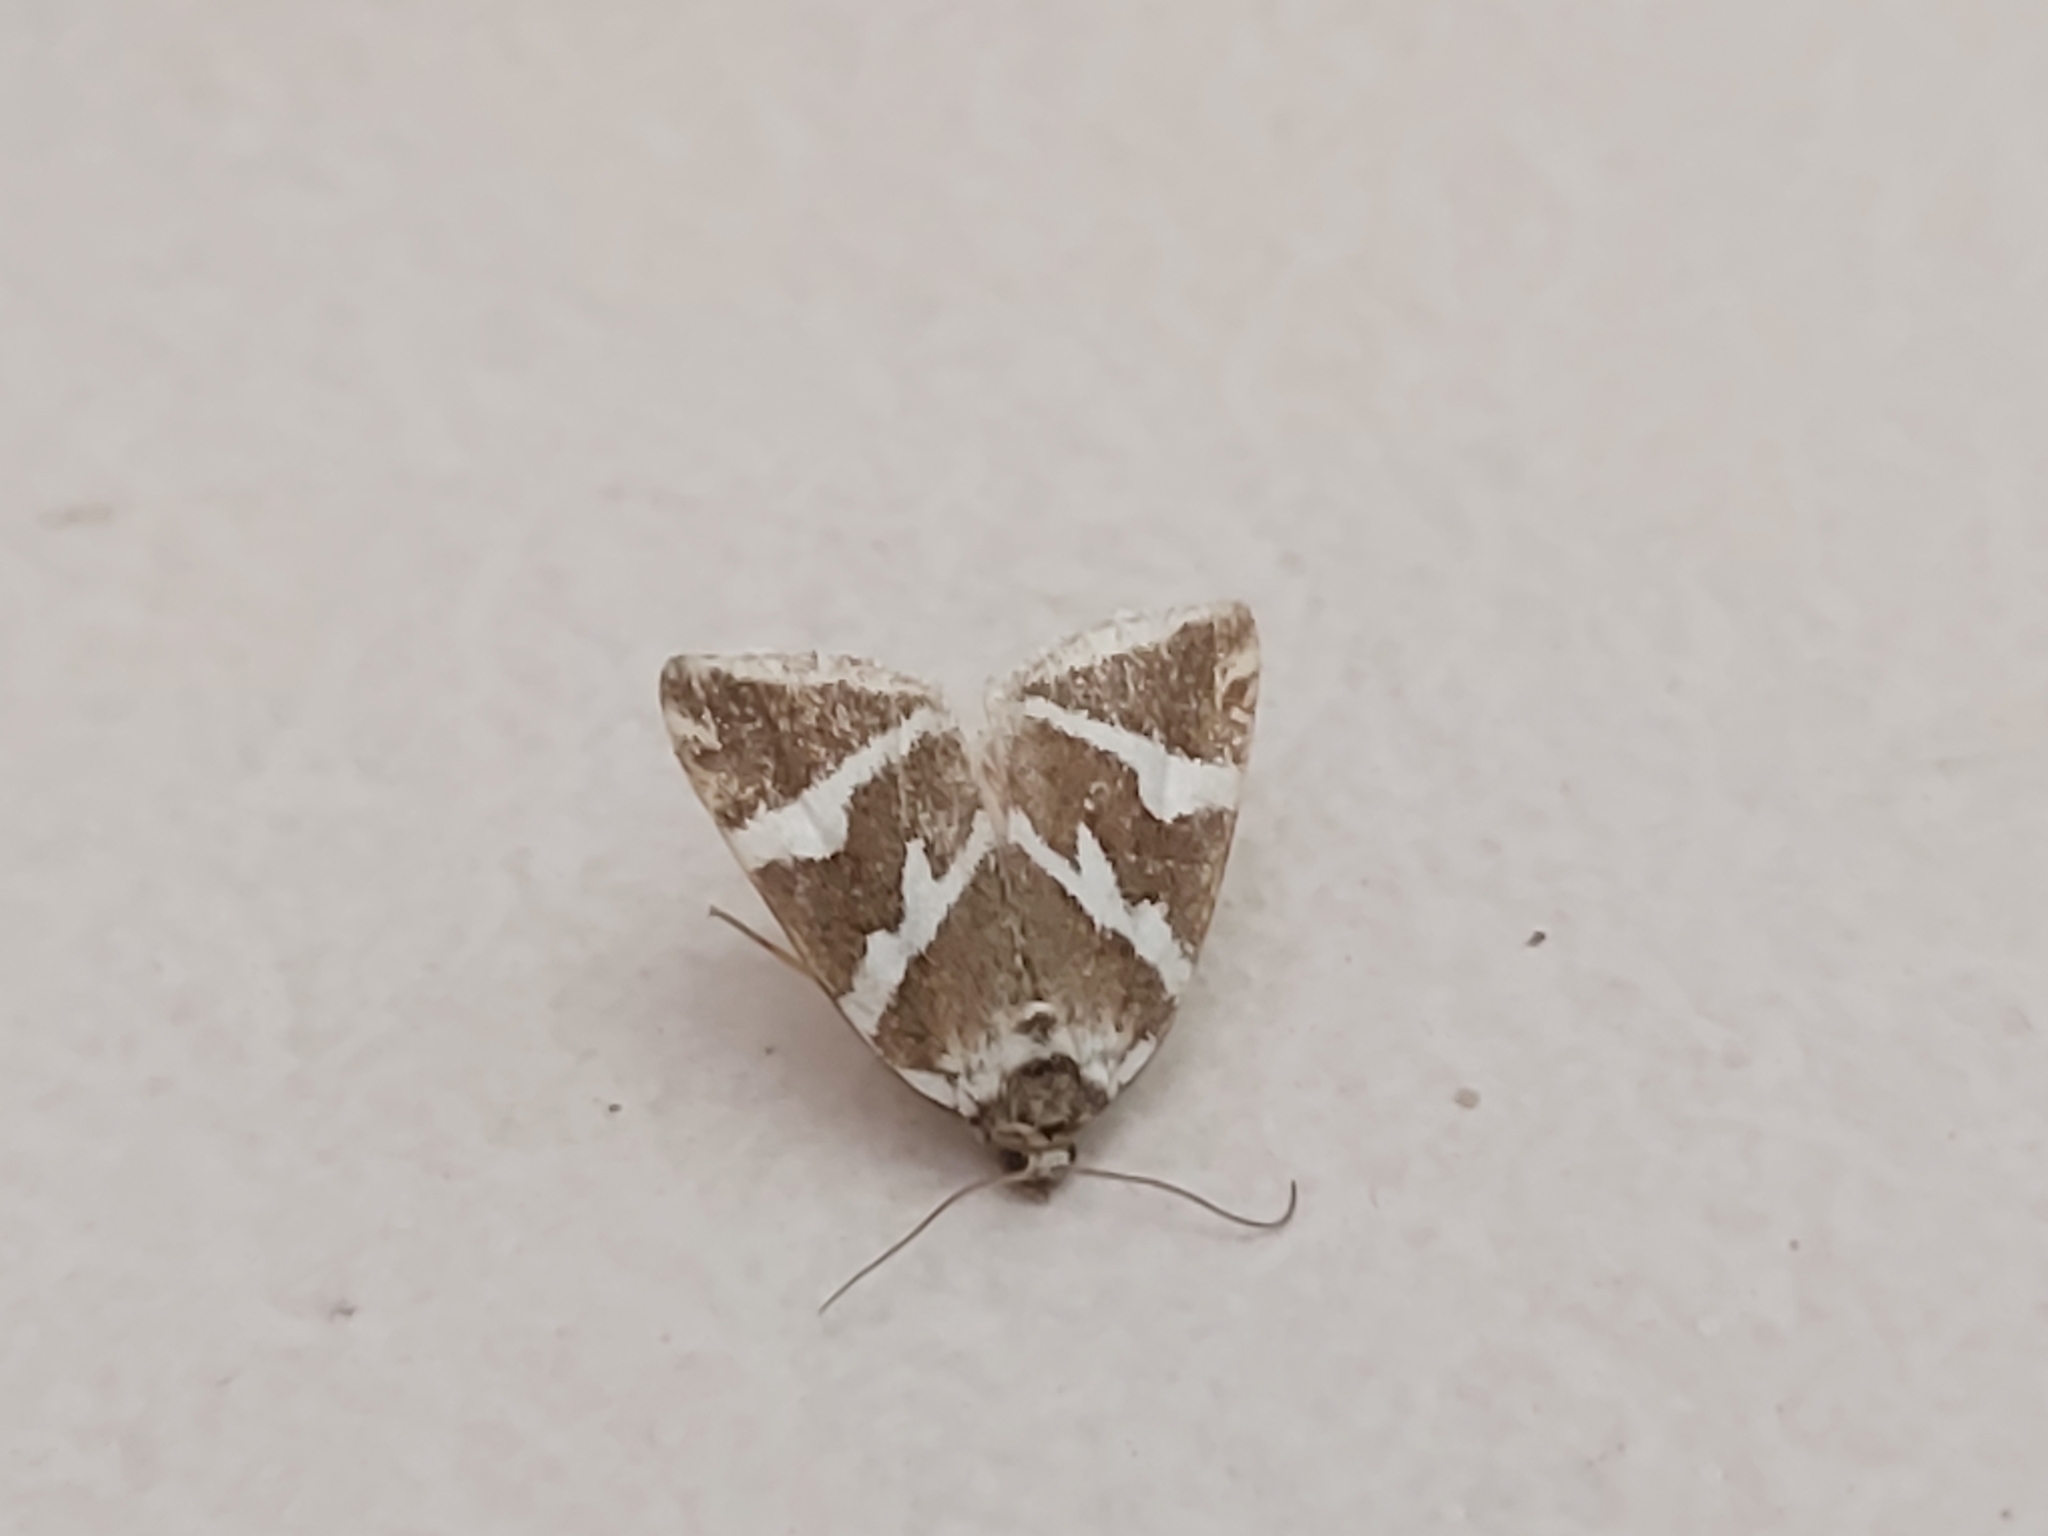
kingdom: Animalia
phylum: Arthropoda
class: Insecta
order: Lepidoptera
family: Noctuidae
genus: Deltote
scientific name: Deltote bankiana
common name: Silver barred
